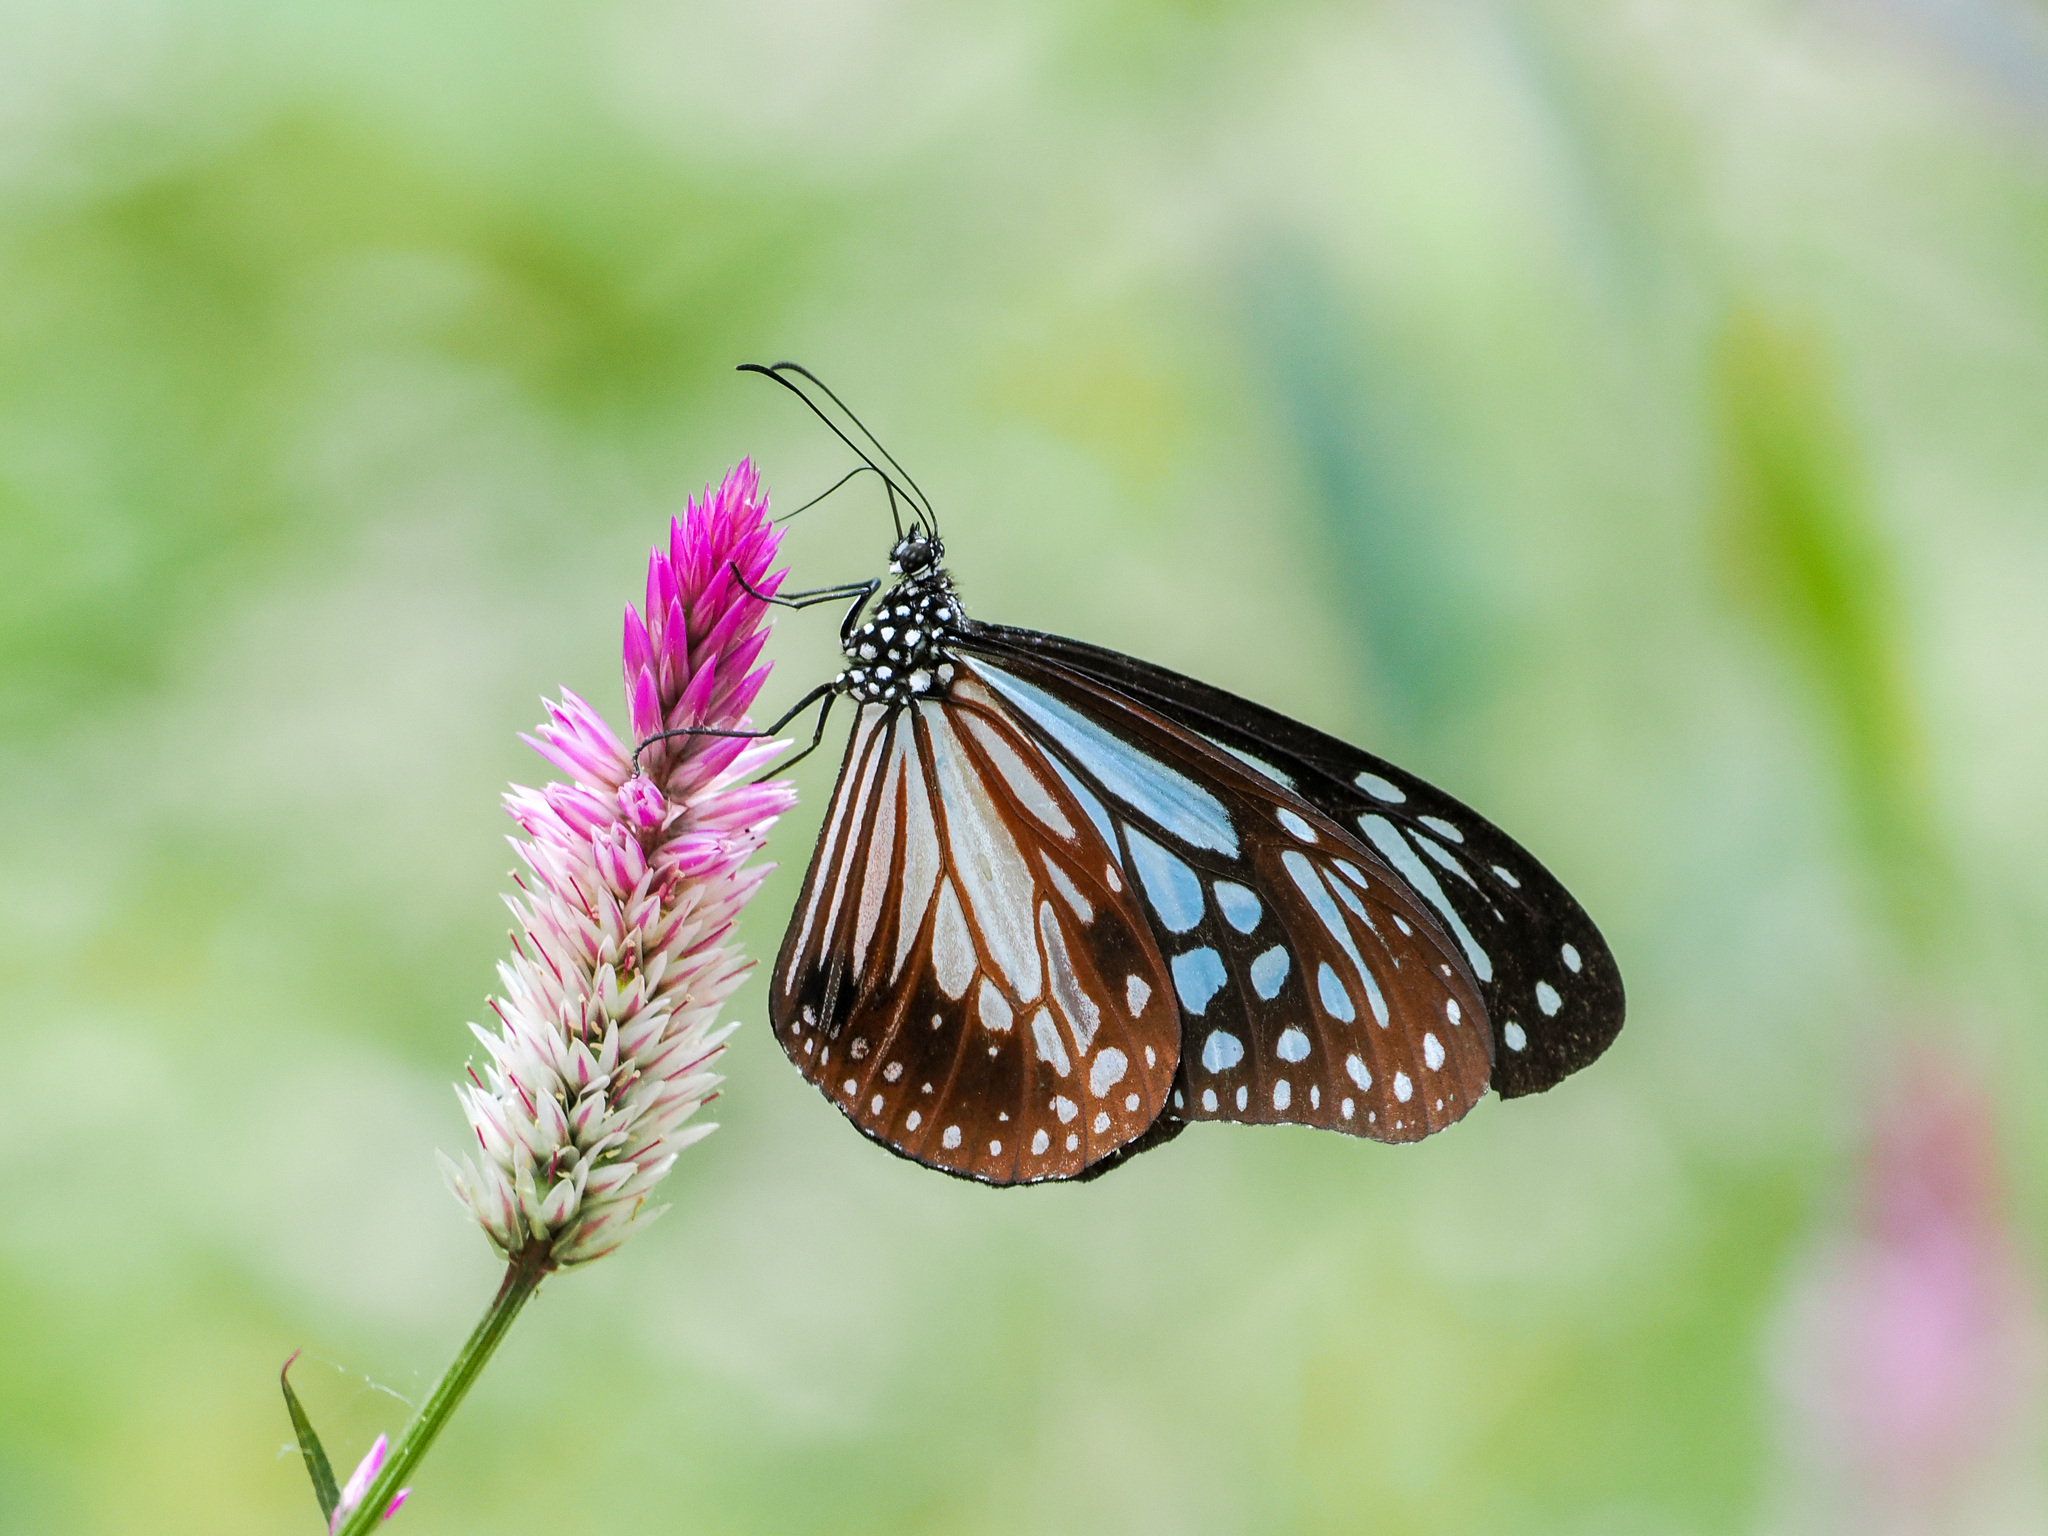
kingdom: Animalia
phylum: Arthropoda
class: Insecta
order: Lepidoptera
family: Nymphalidae
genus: Parantica
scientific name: Parantica melaneus
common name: Chocolate tiger
